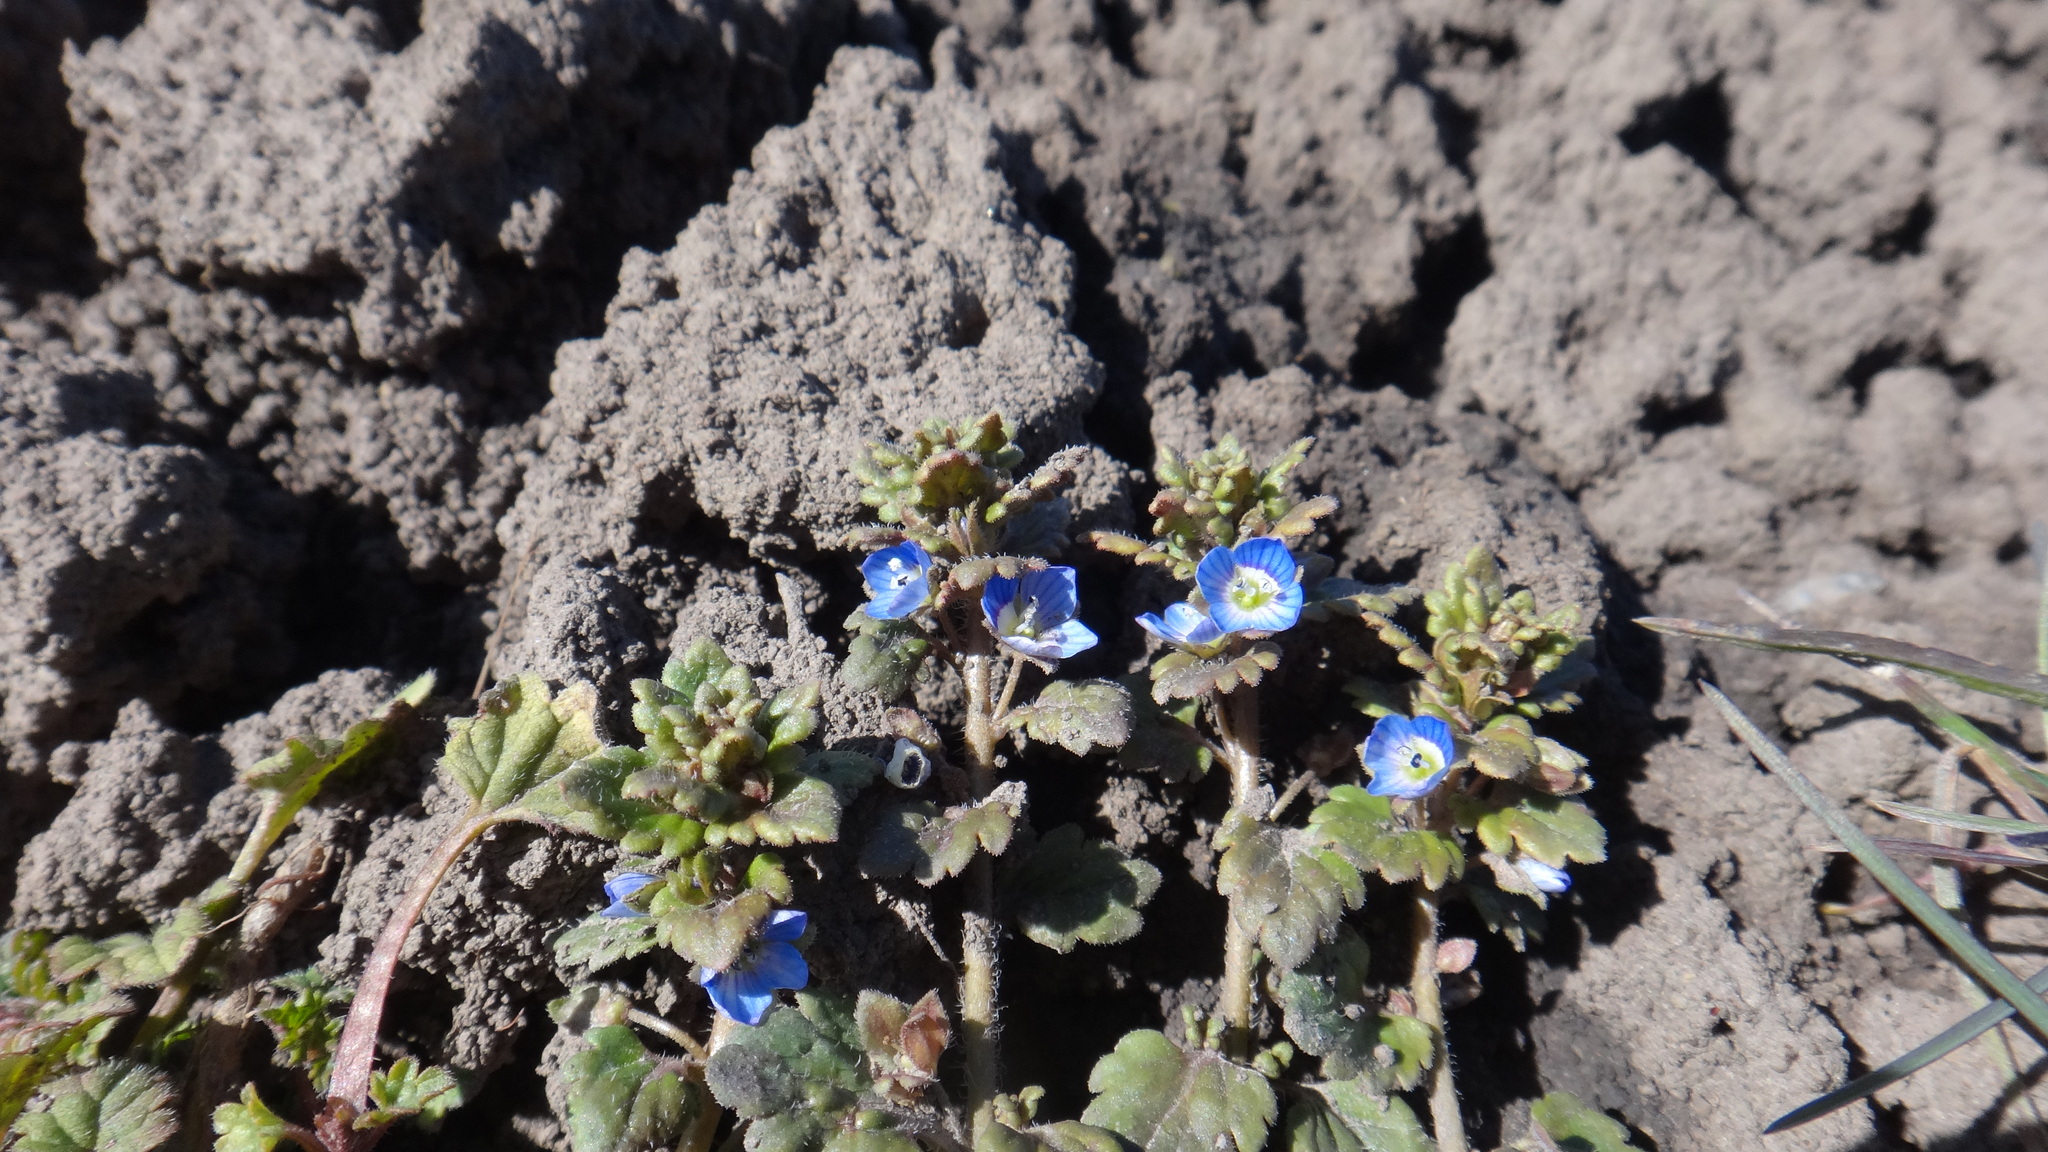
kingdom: Plantae
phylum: Tracheophyta
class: Magnoliopsida
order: Lamiales
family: Plantaginaceae
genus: Veronica
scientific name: Veronica polita
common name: Grey field-speedwell
